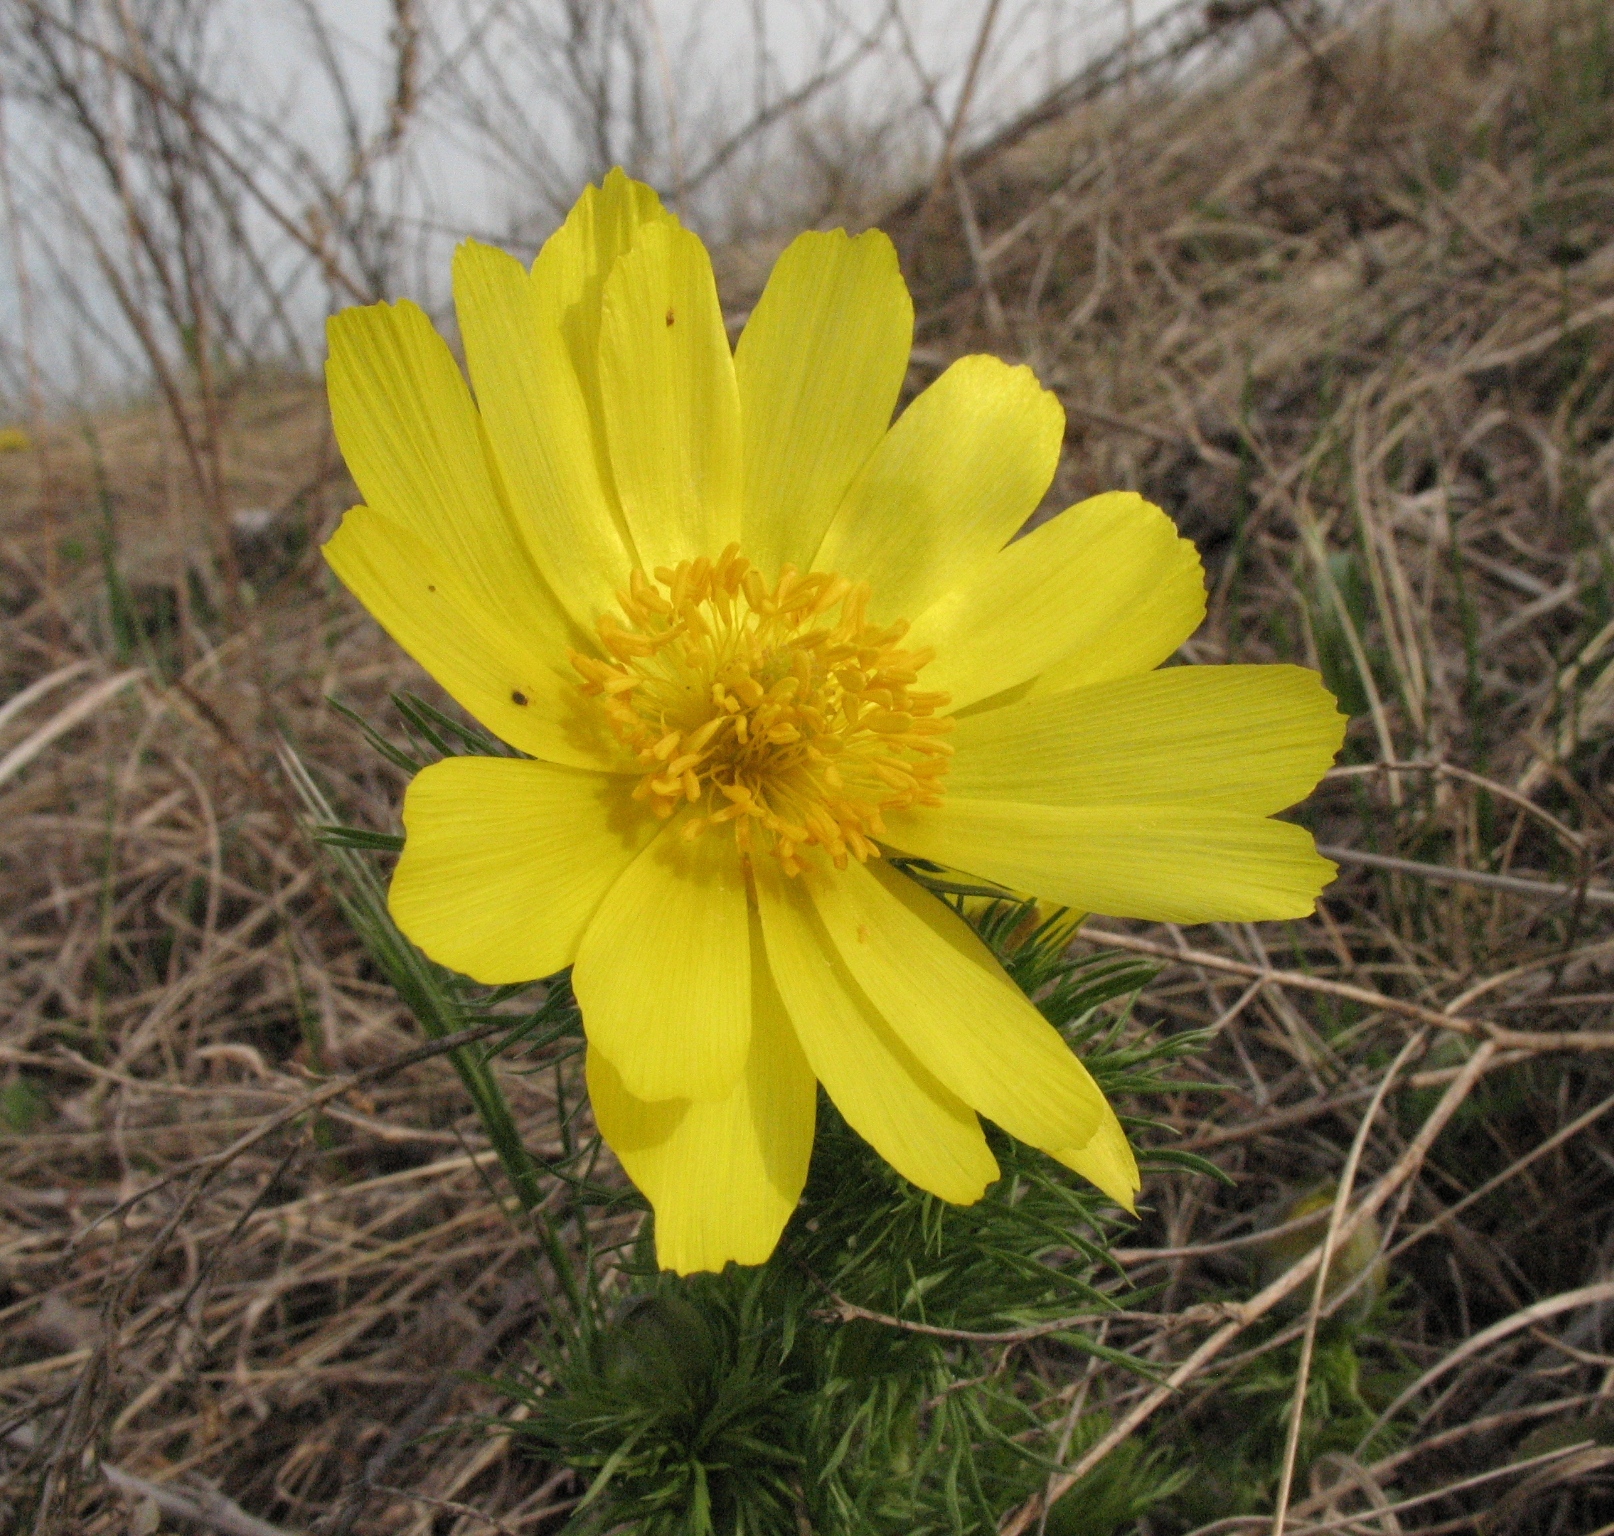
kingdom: Plantae
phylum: Tracheophyta
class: Magnoliopsida
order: Ranunculales
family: Ranunculaceae
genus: Adonis
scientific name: Adonis vernalis
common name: Yellow pheasants-eye
